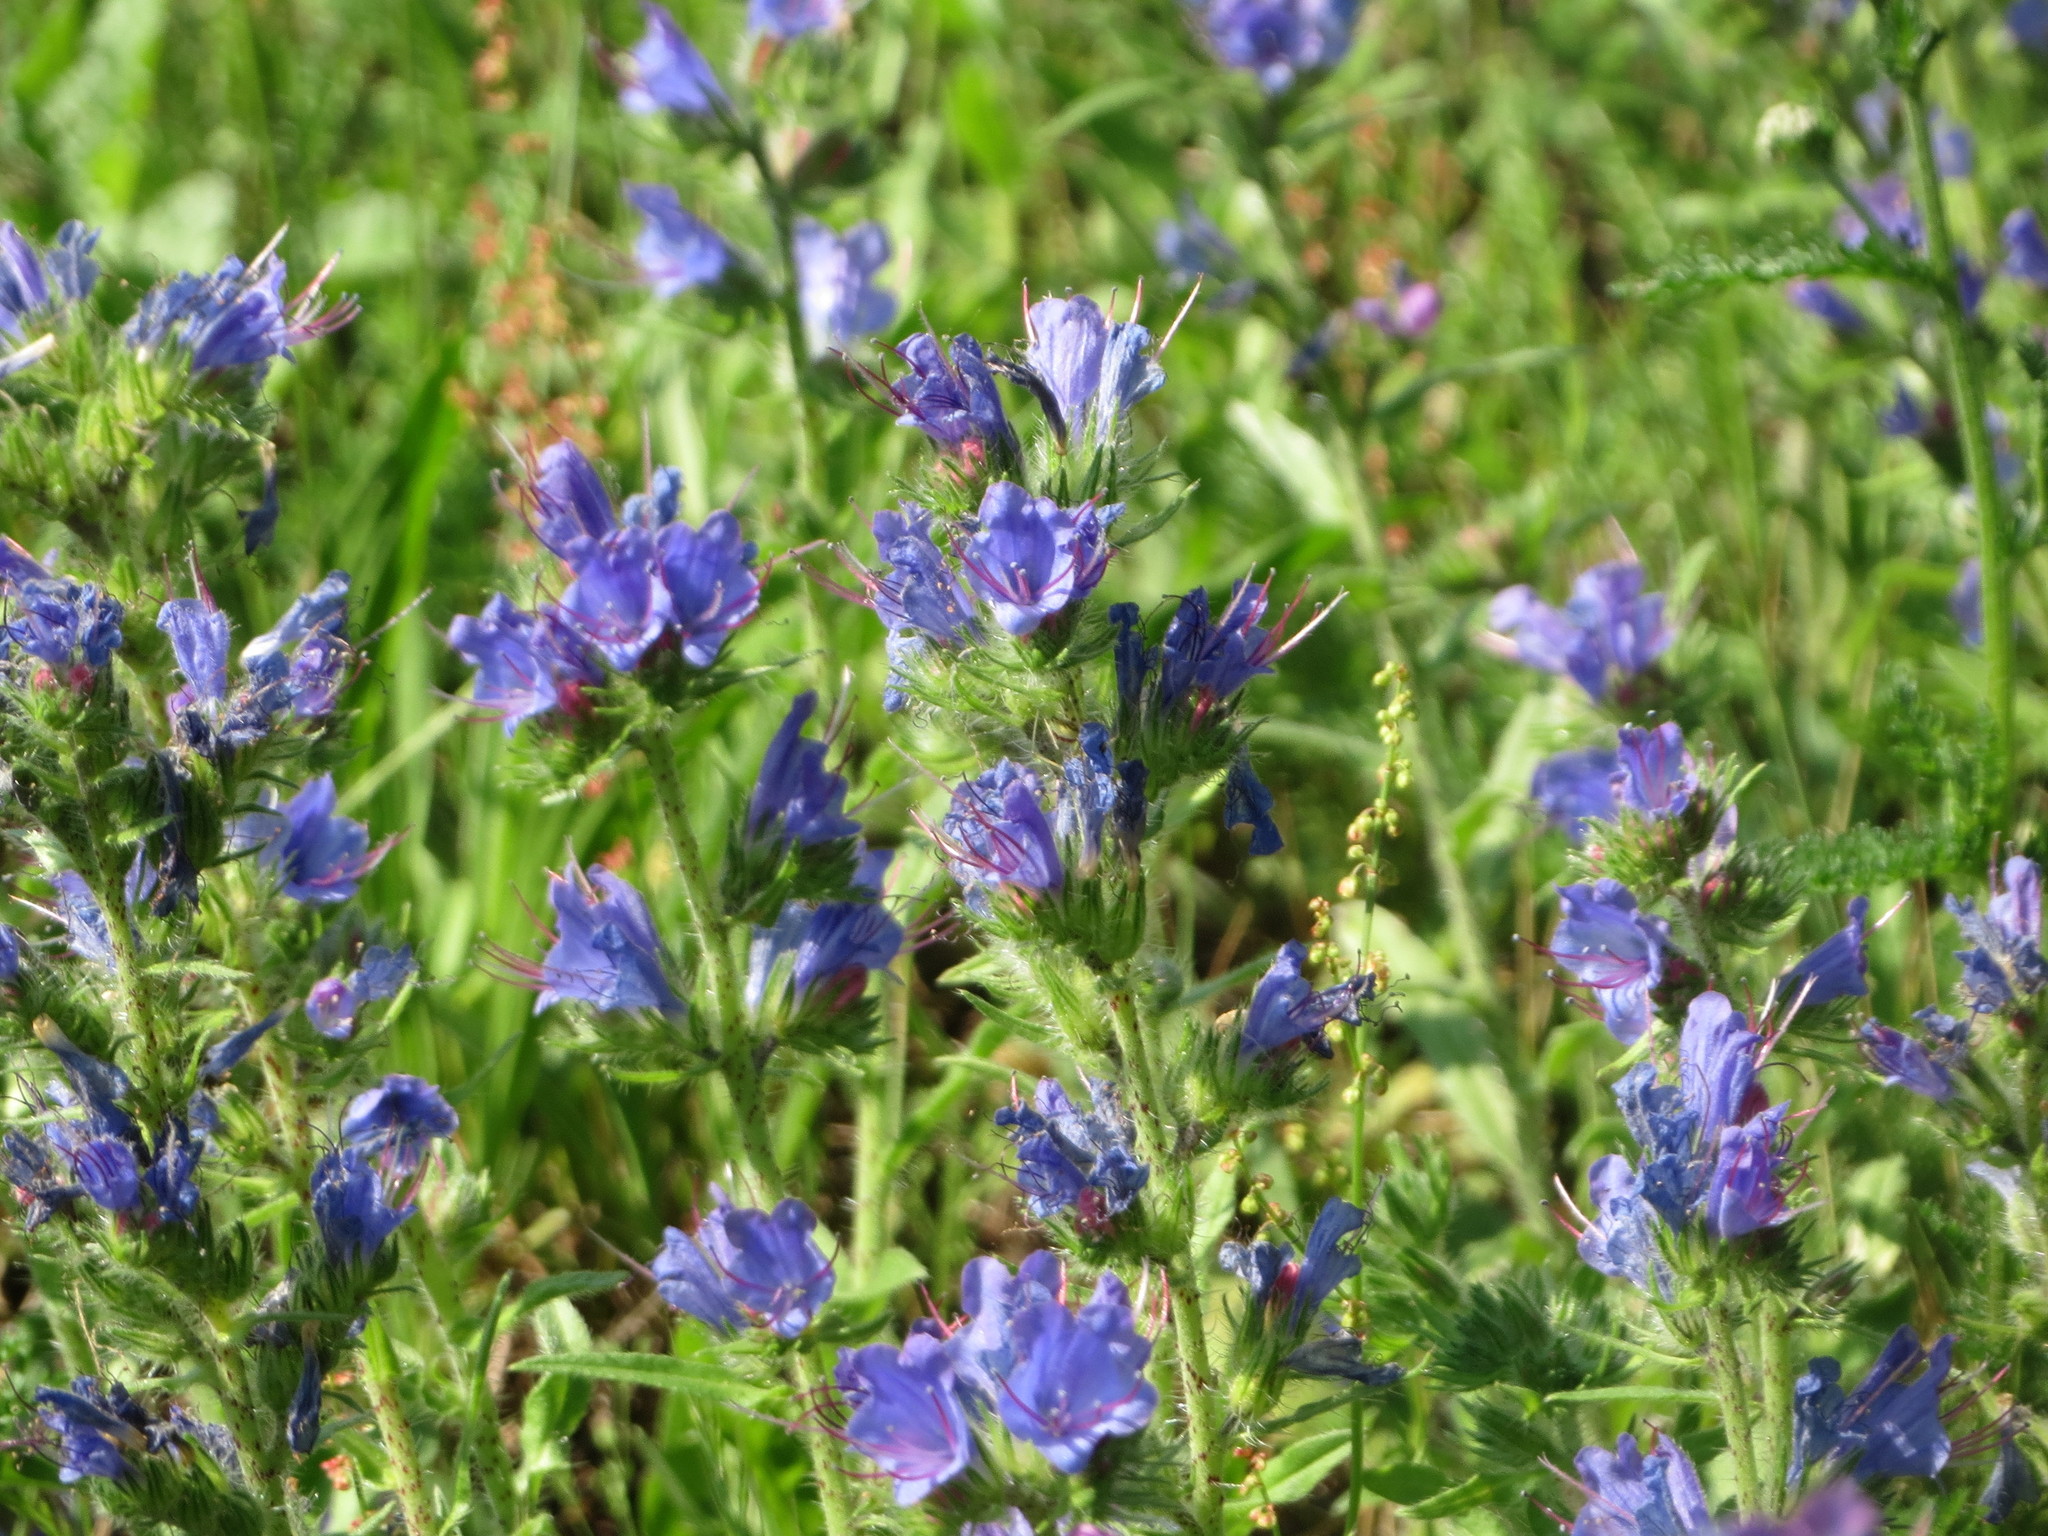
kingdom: Plantae
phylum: Tracheophyta
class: Magnoliopsida
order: Boraginales
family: Boraginaceae
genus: Echium
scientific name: Echium vulgare
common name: Common viper's bugloss
